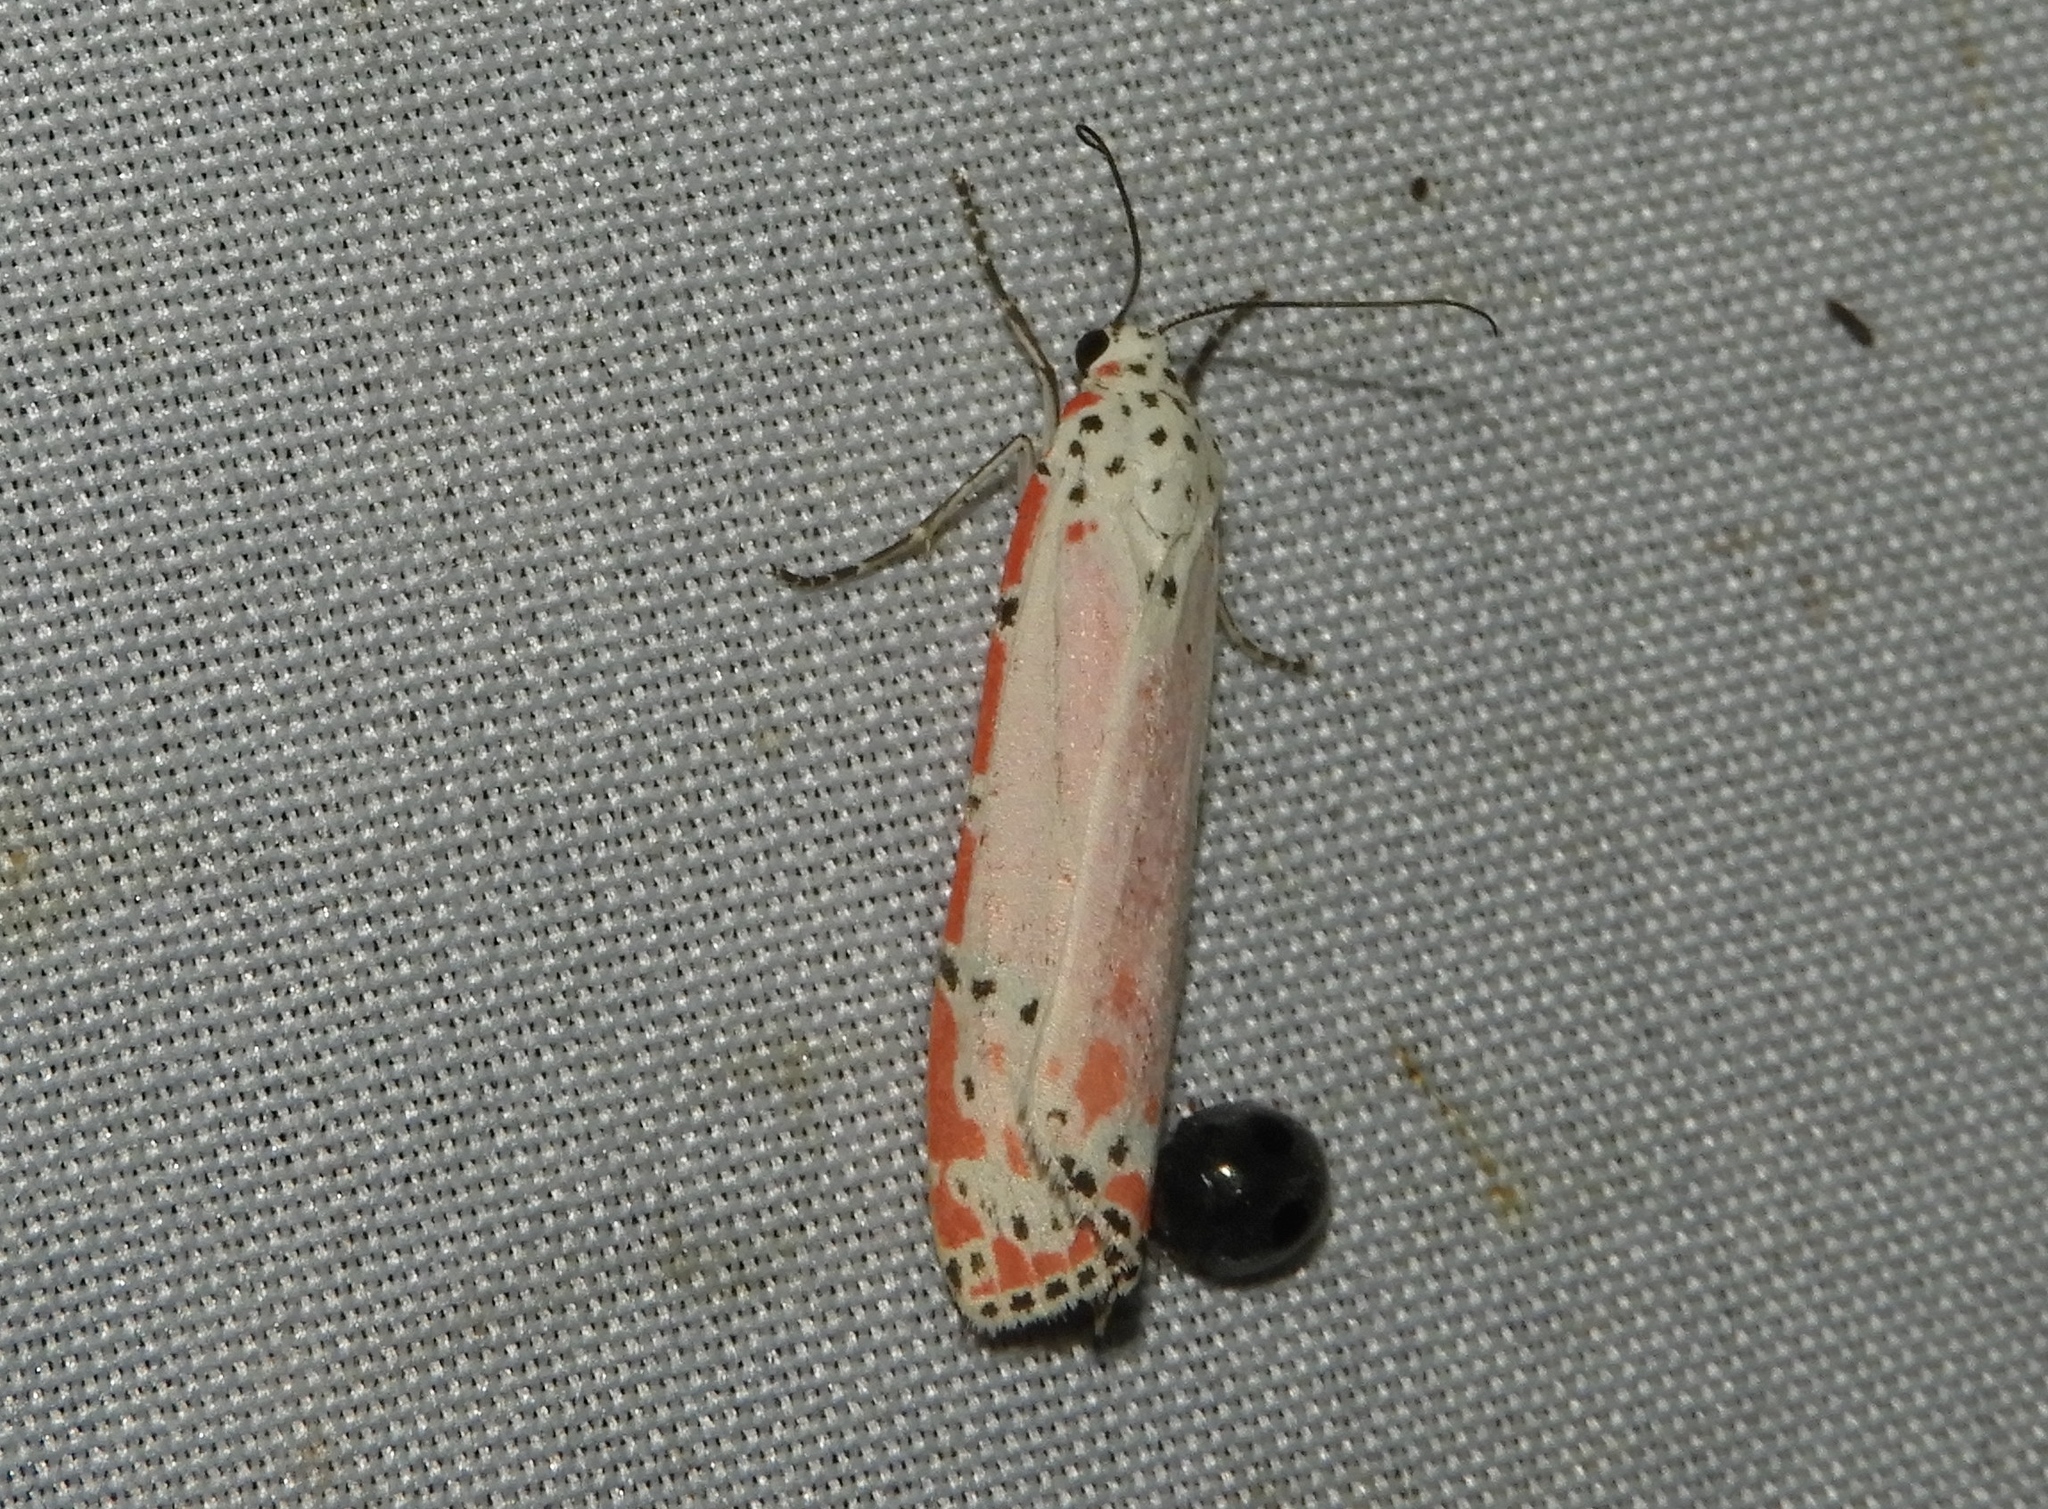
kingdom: Animalia
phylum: Arthropoda
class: Insecta
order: Lepidoptera
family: Erebidae
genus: Utetheisa
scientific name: Utetheisa ornatrix
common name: Beautiful utetheisa
